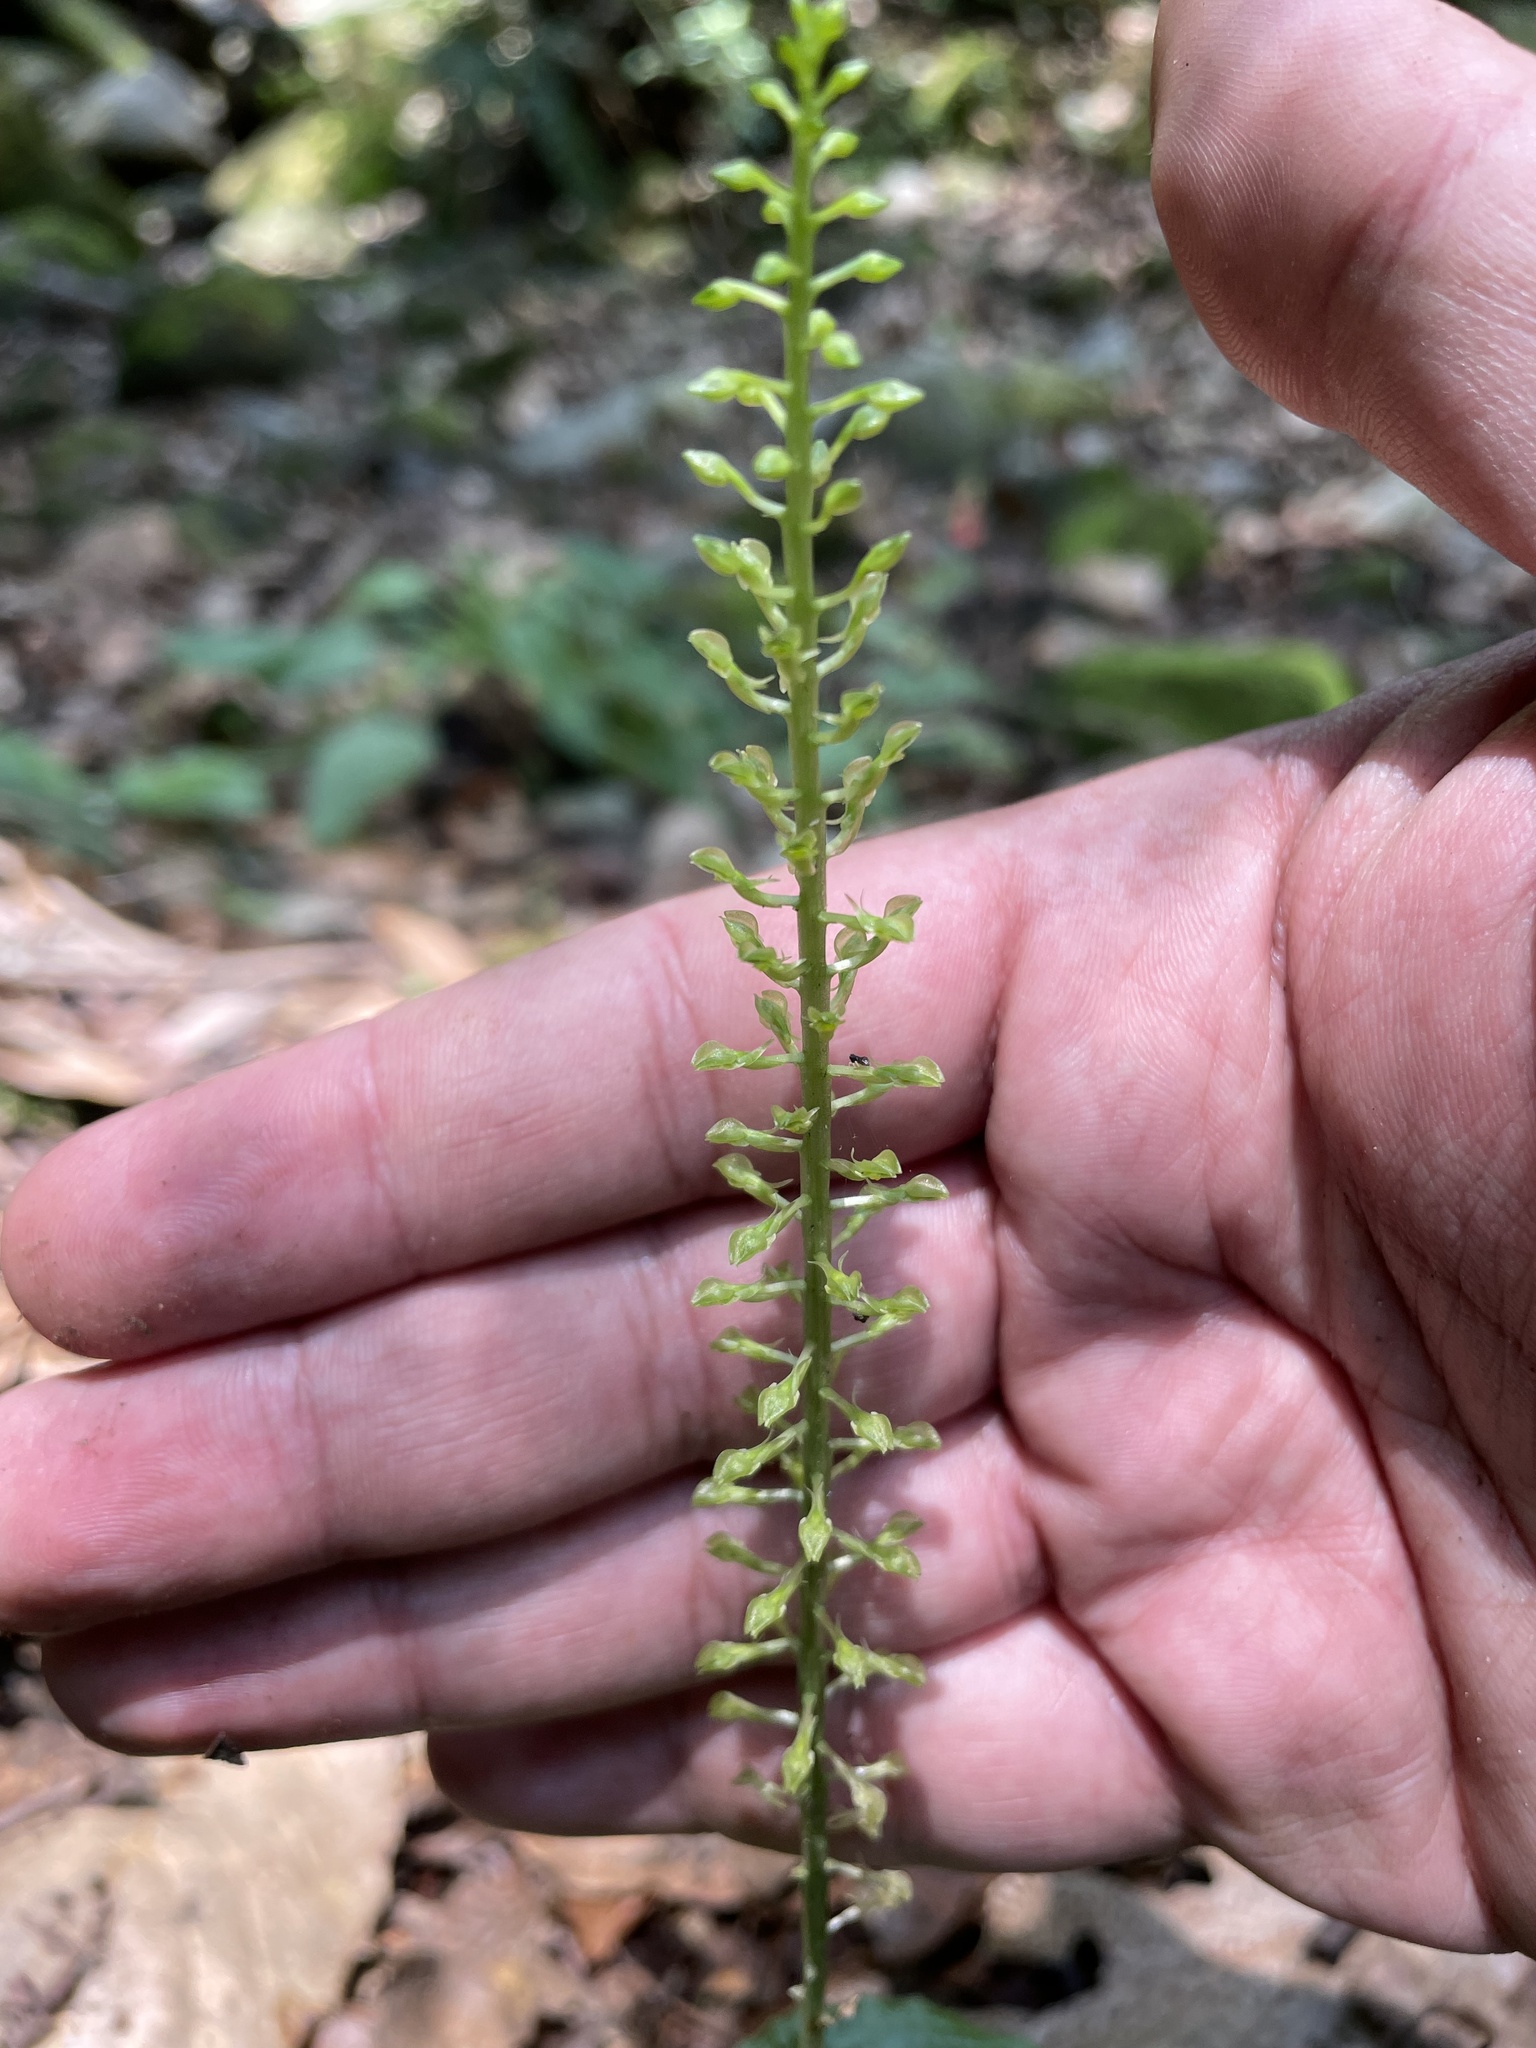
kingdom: Plantae
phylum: Tracheophyta
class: Liliopsida
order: Asparagales
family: Orchidaceae
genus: Malaxis
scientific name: Malaxis maianthemifolia
